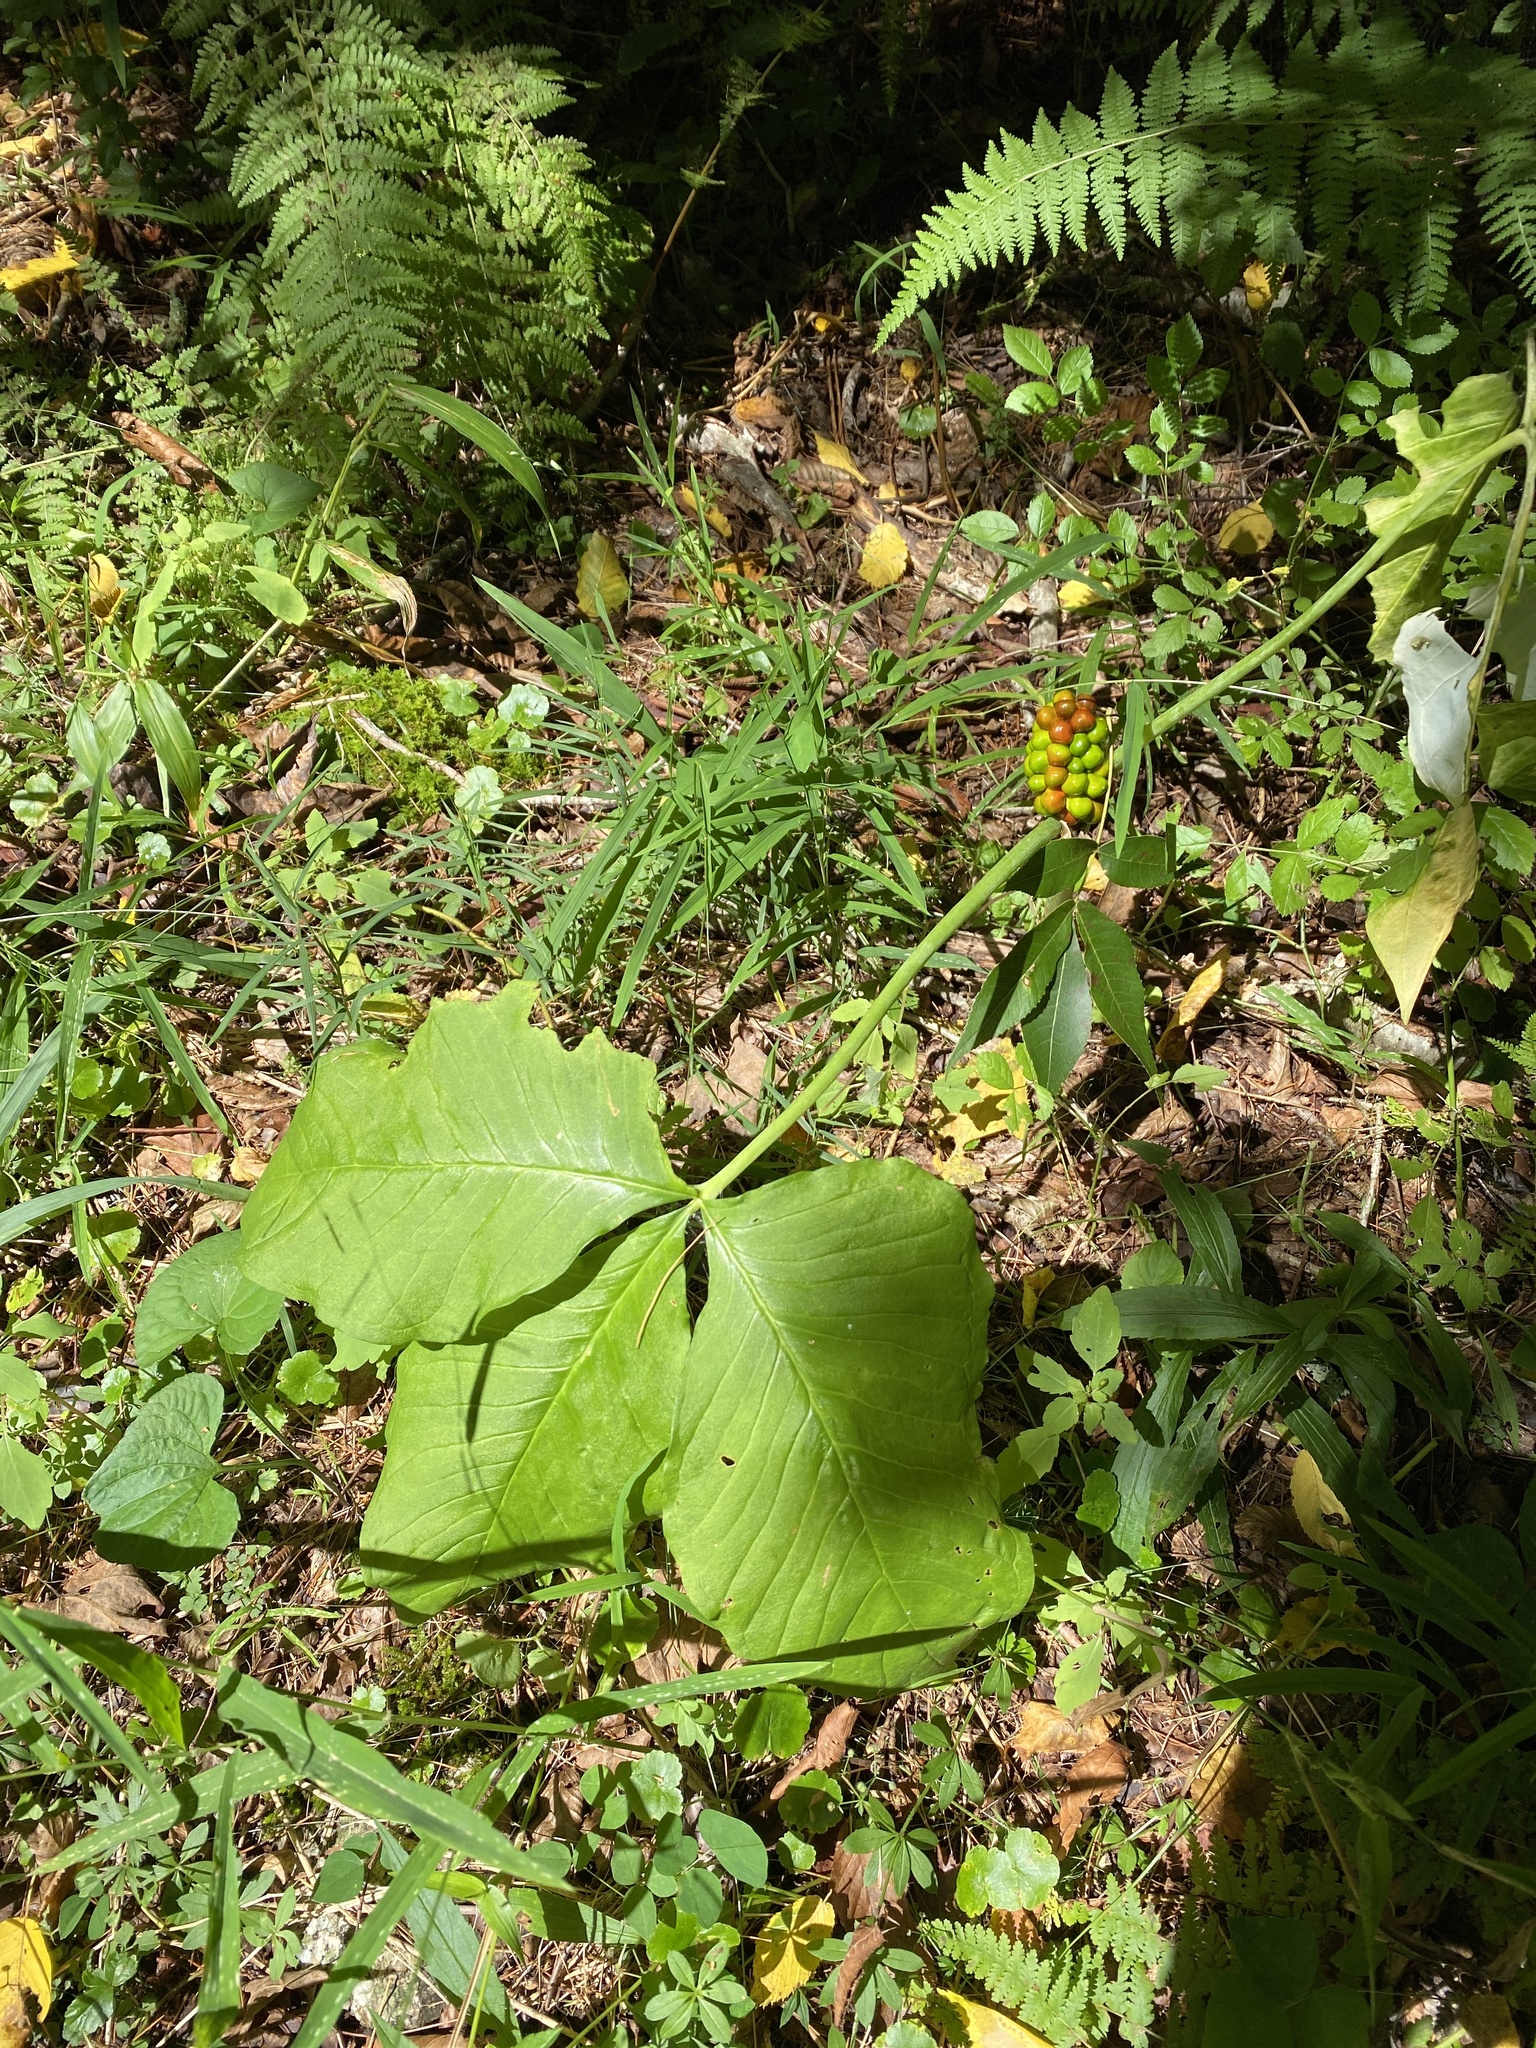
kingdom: Plantae
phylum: Tracheophyta
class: Liliopsida
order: Alismatales
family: Araceae
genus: Arisaema
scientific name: Arisaema triphyllum
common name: Jack-in-the-pulpit
